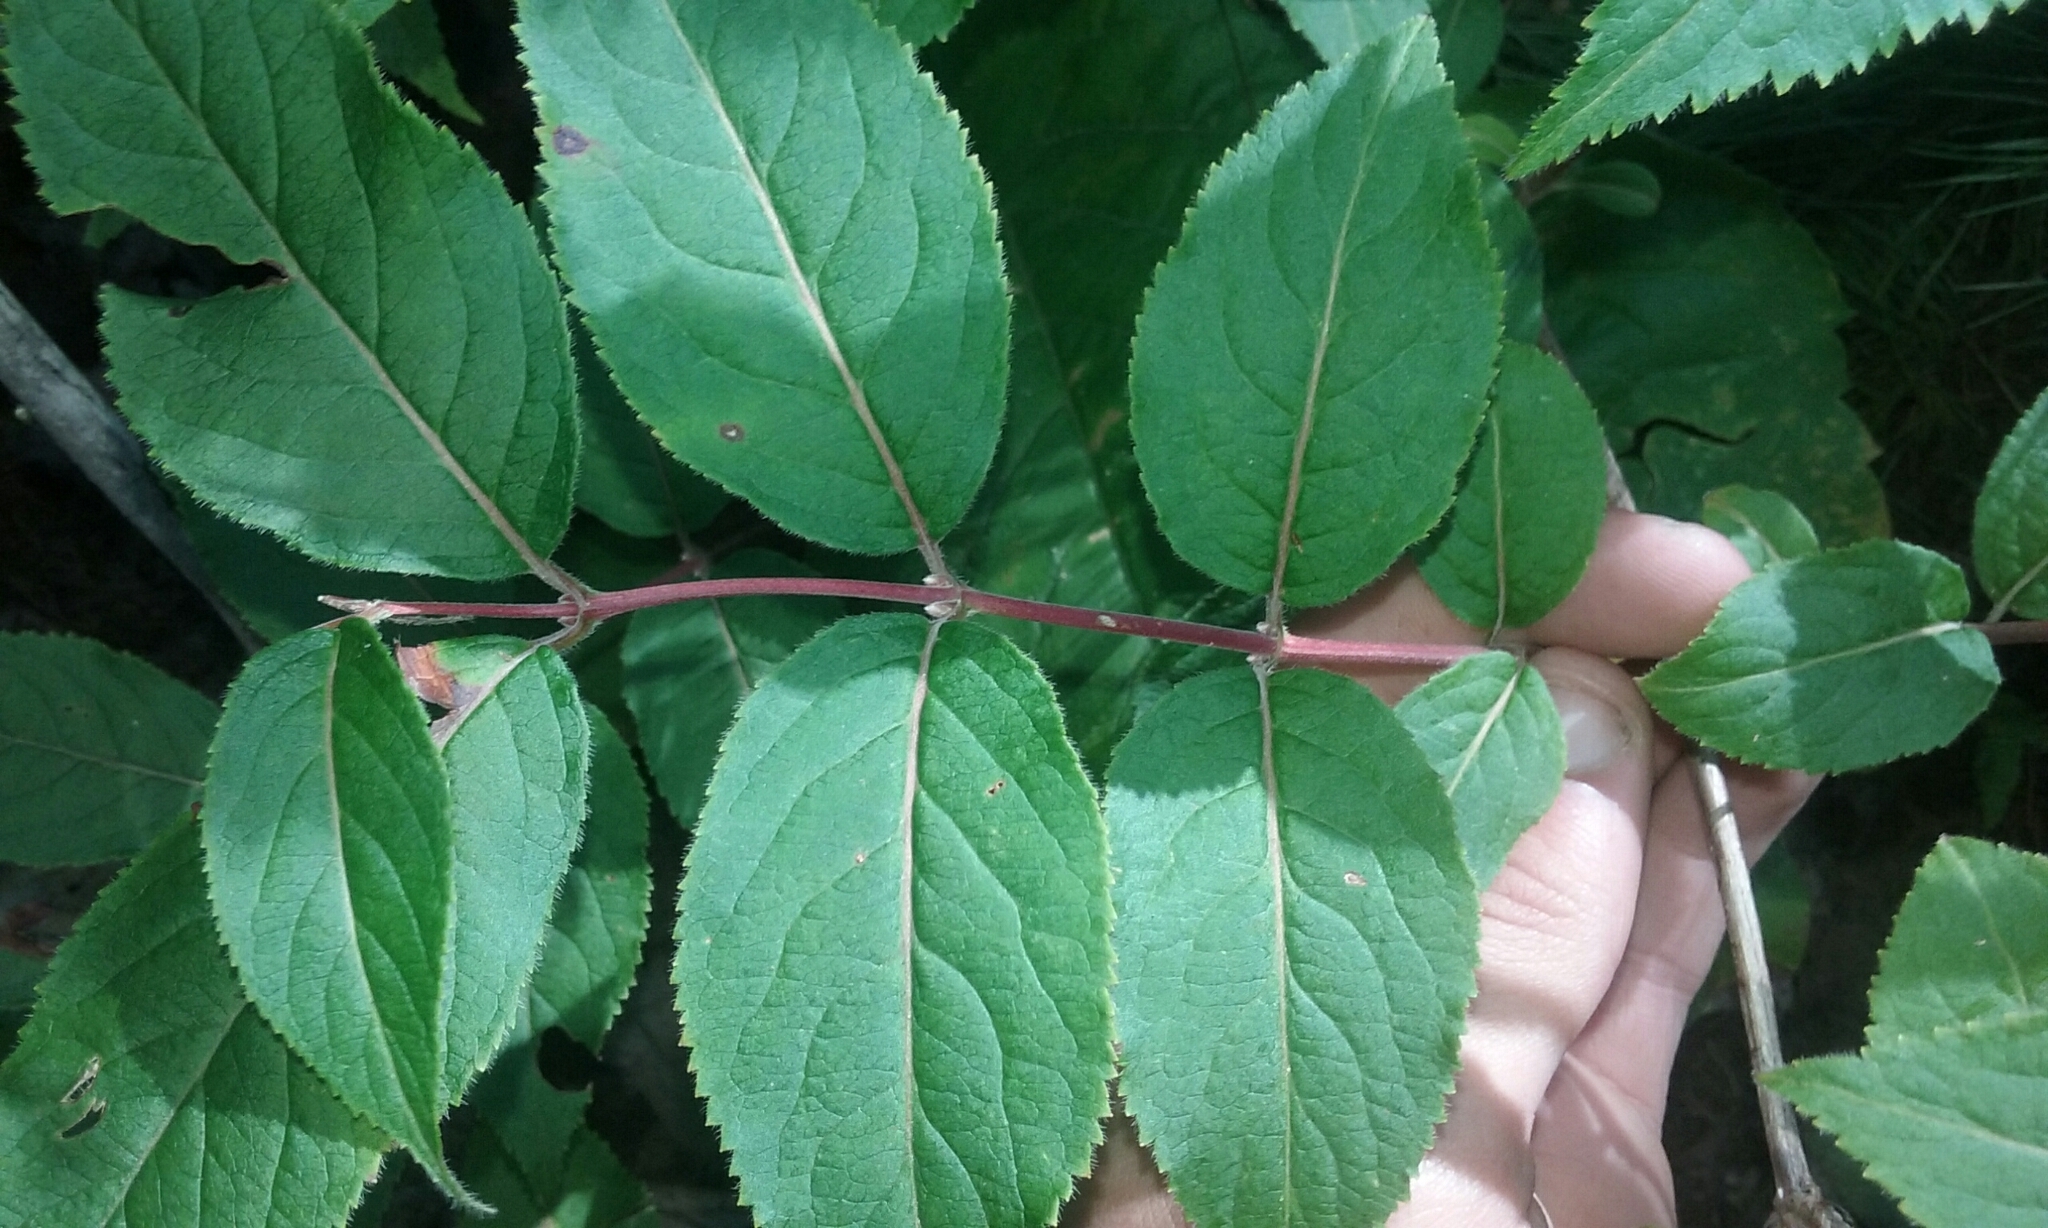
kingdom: Plantae
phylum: Tracheophyta
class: Magnoliopsida
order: Dipsacales
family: Caprifoliaceae
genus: Diervilla
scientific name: Diervilla lonicera
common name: Bush-honeysuckle
